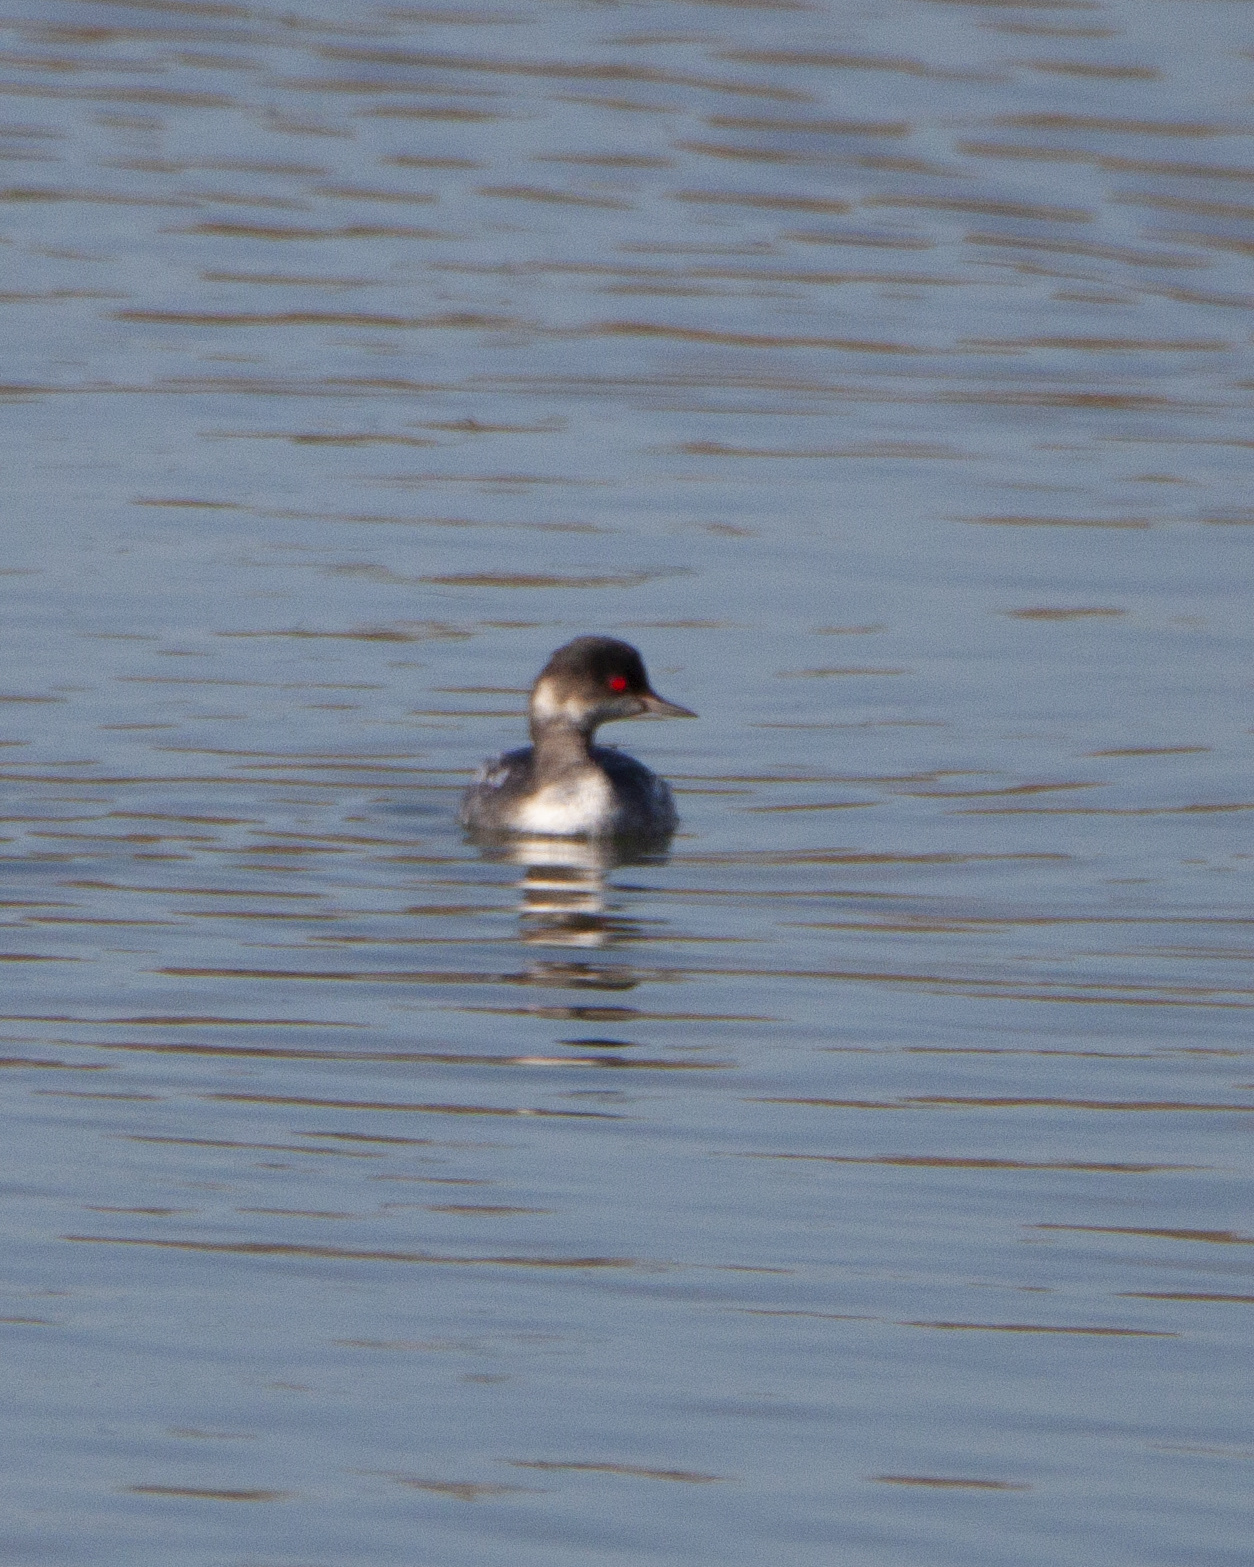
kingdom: Animalia
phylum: Chordata
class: Aves
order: Podicipediformes
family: Podicipedidae
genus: Podiceps
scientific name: Podiceps nigricollis
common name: Black-necked grebe
